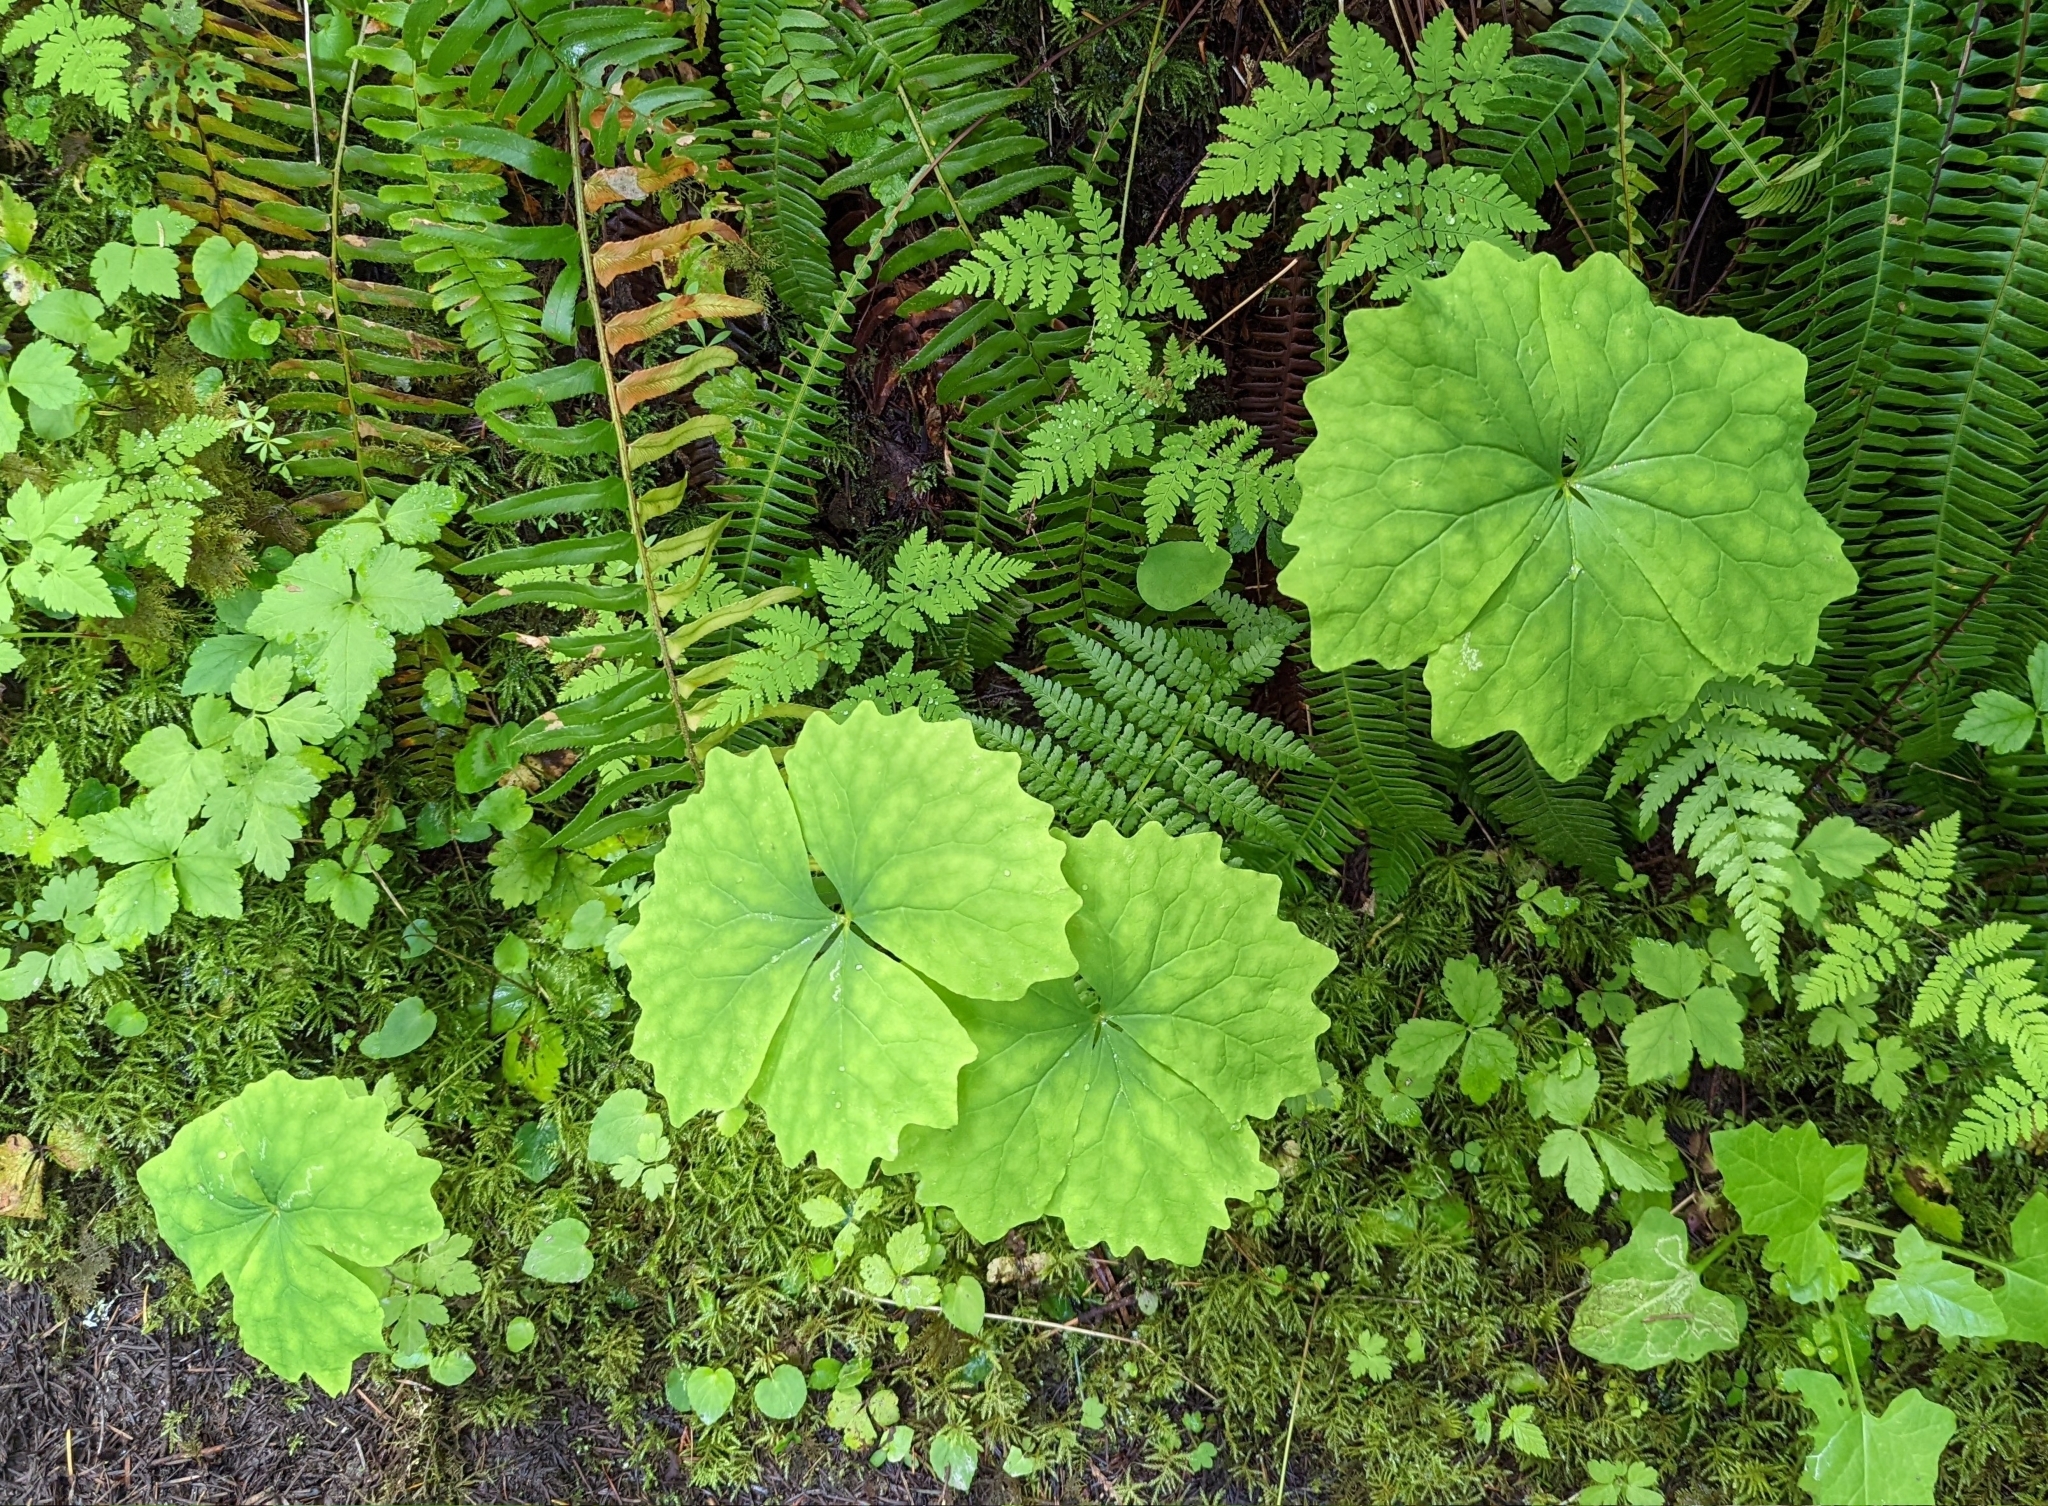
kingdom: Plantae
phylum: Tracheophyta
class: Magnoliopsida
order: Ranunculales
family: Berberidaceae
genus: Achlys
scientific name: Achlys californica
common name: California deer-foot
